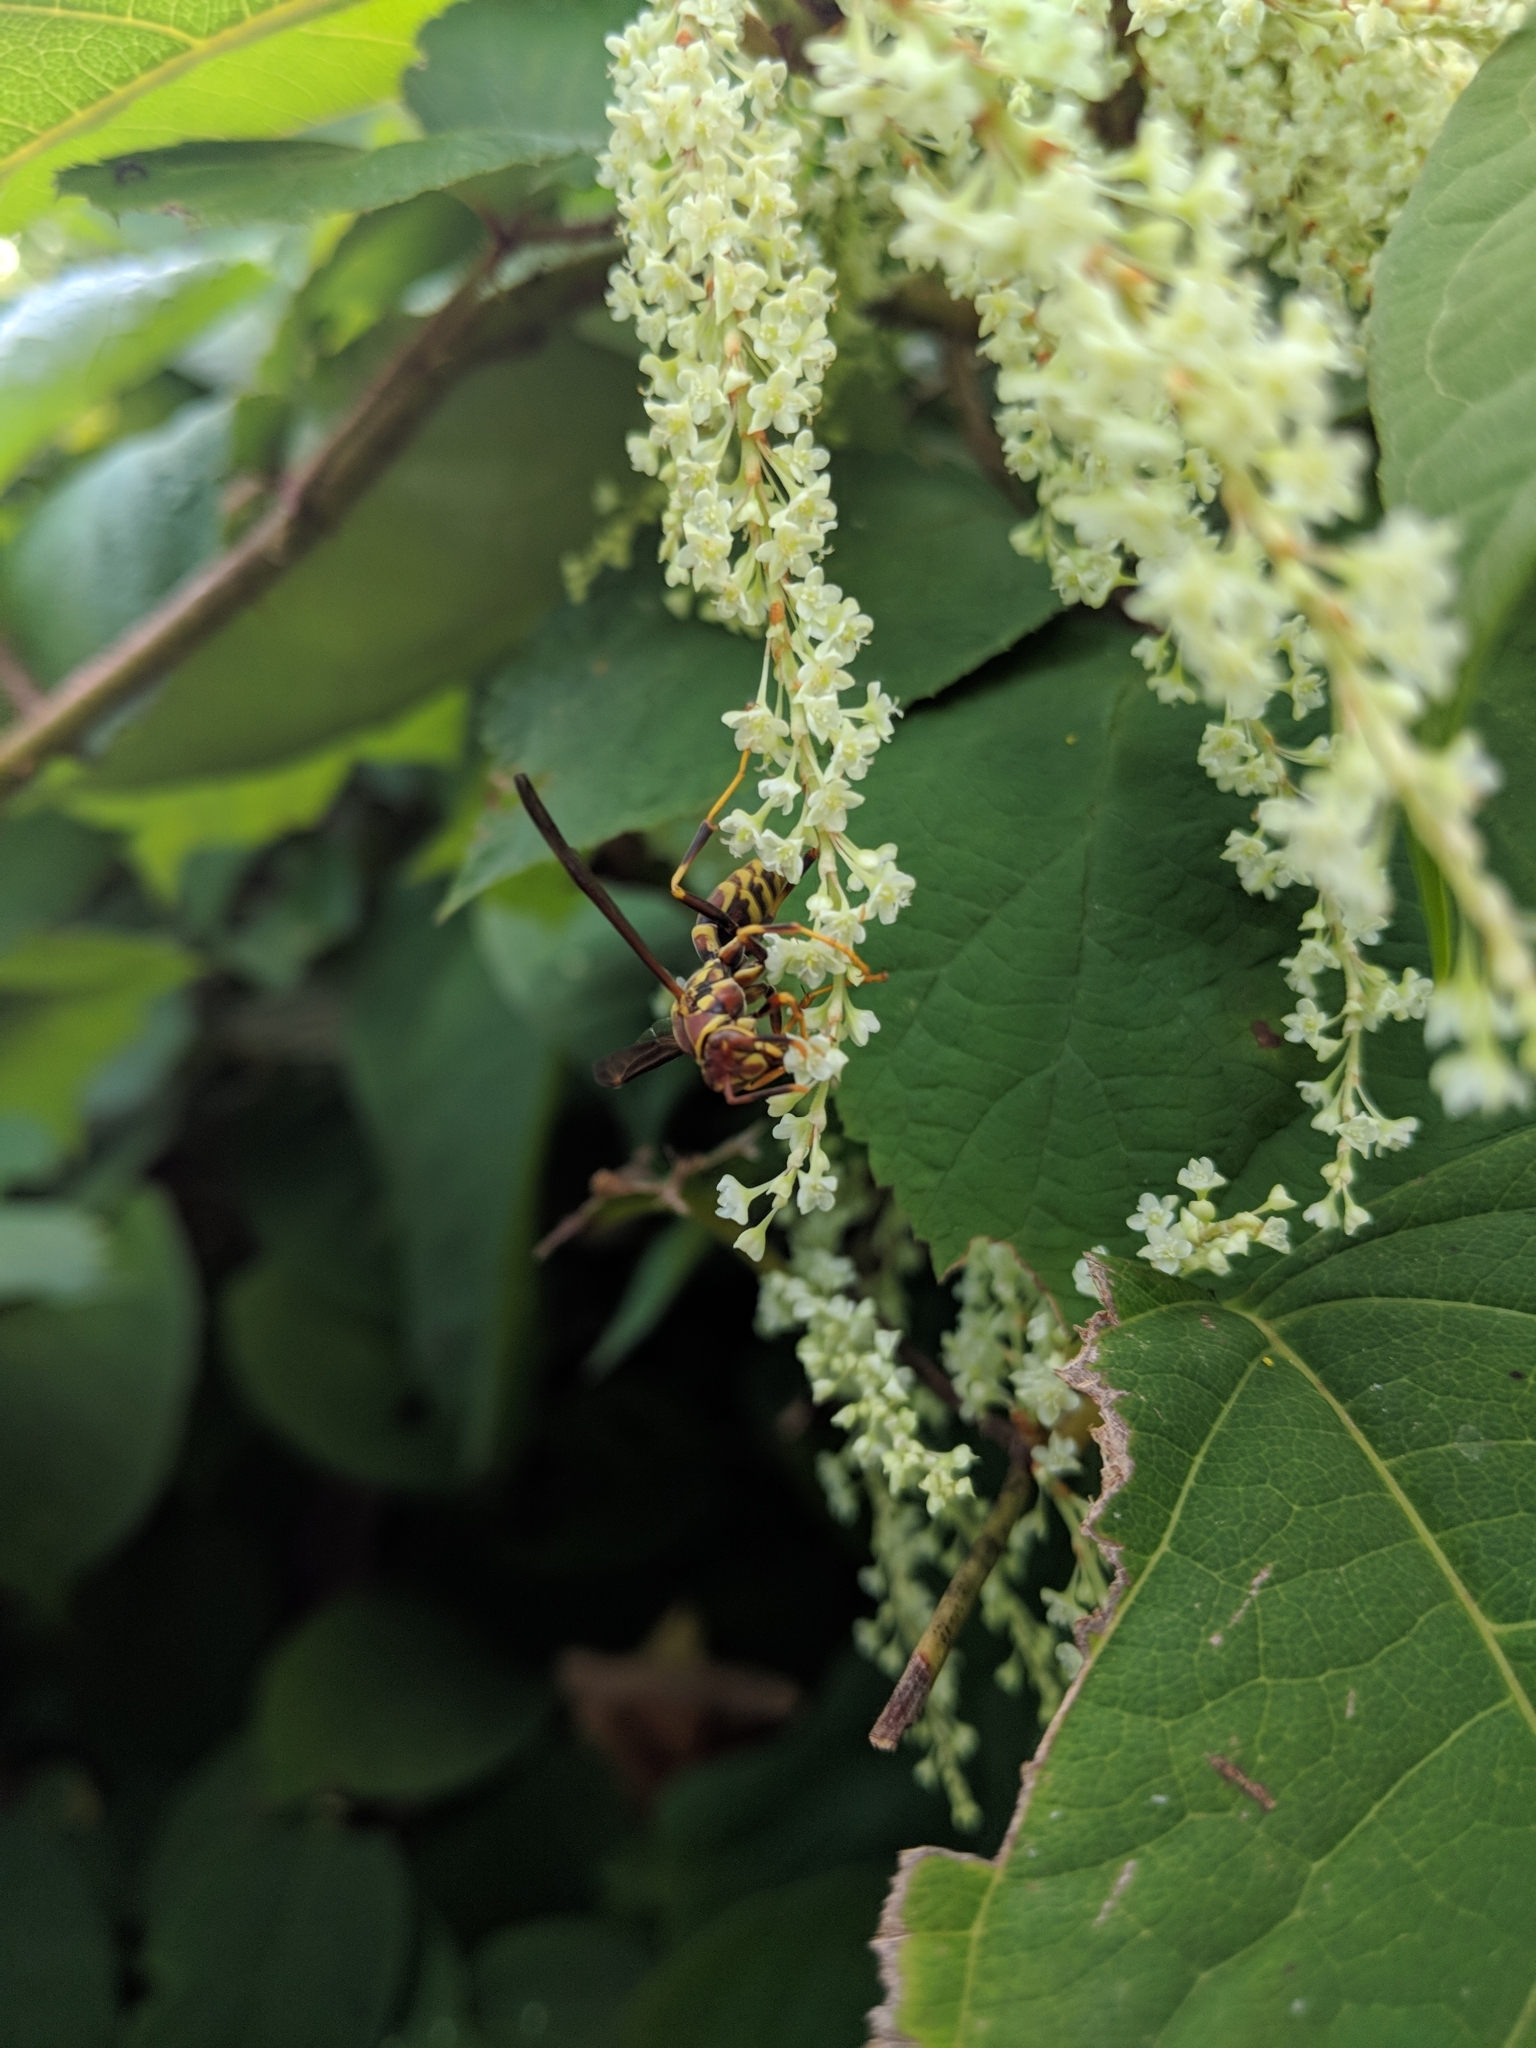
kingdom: Animalia
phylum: Arthropoda
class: Insecta
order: Hymenoptera
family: Eumenidae
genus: Polistes
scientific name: Polistes exclamans
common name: Paper wasp
